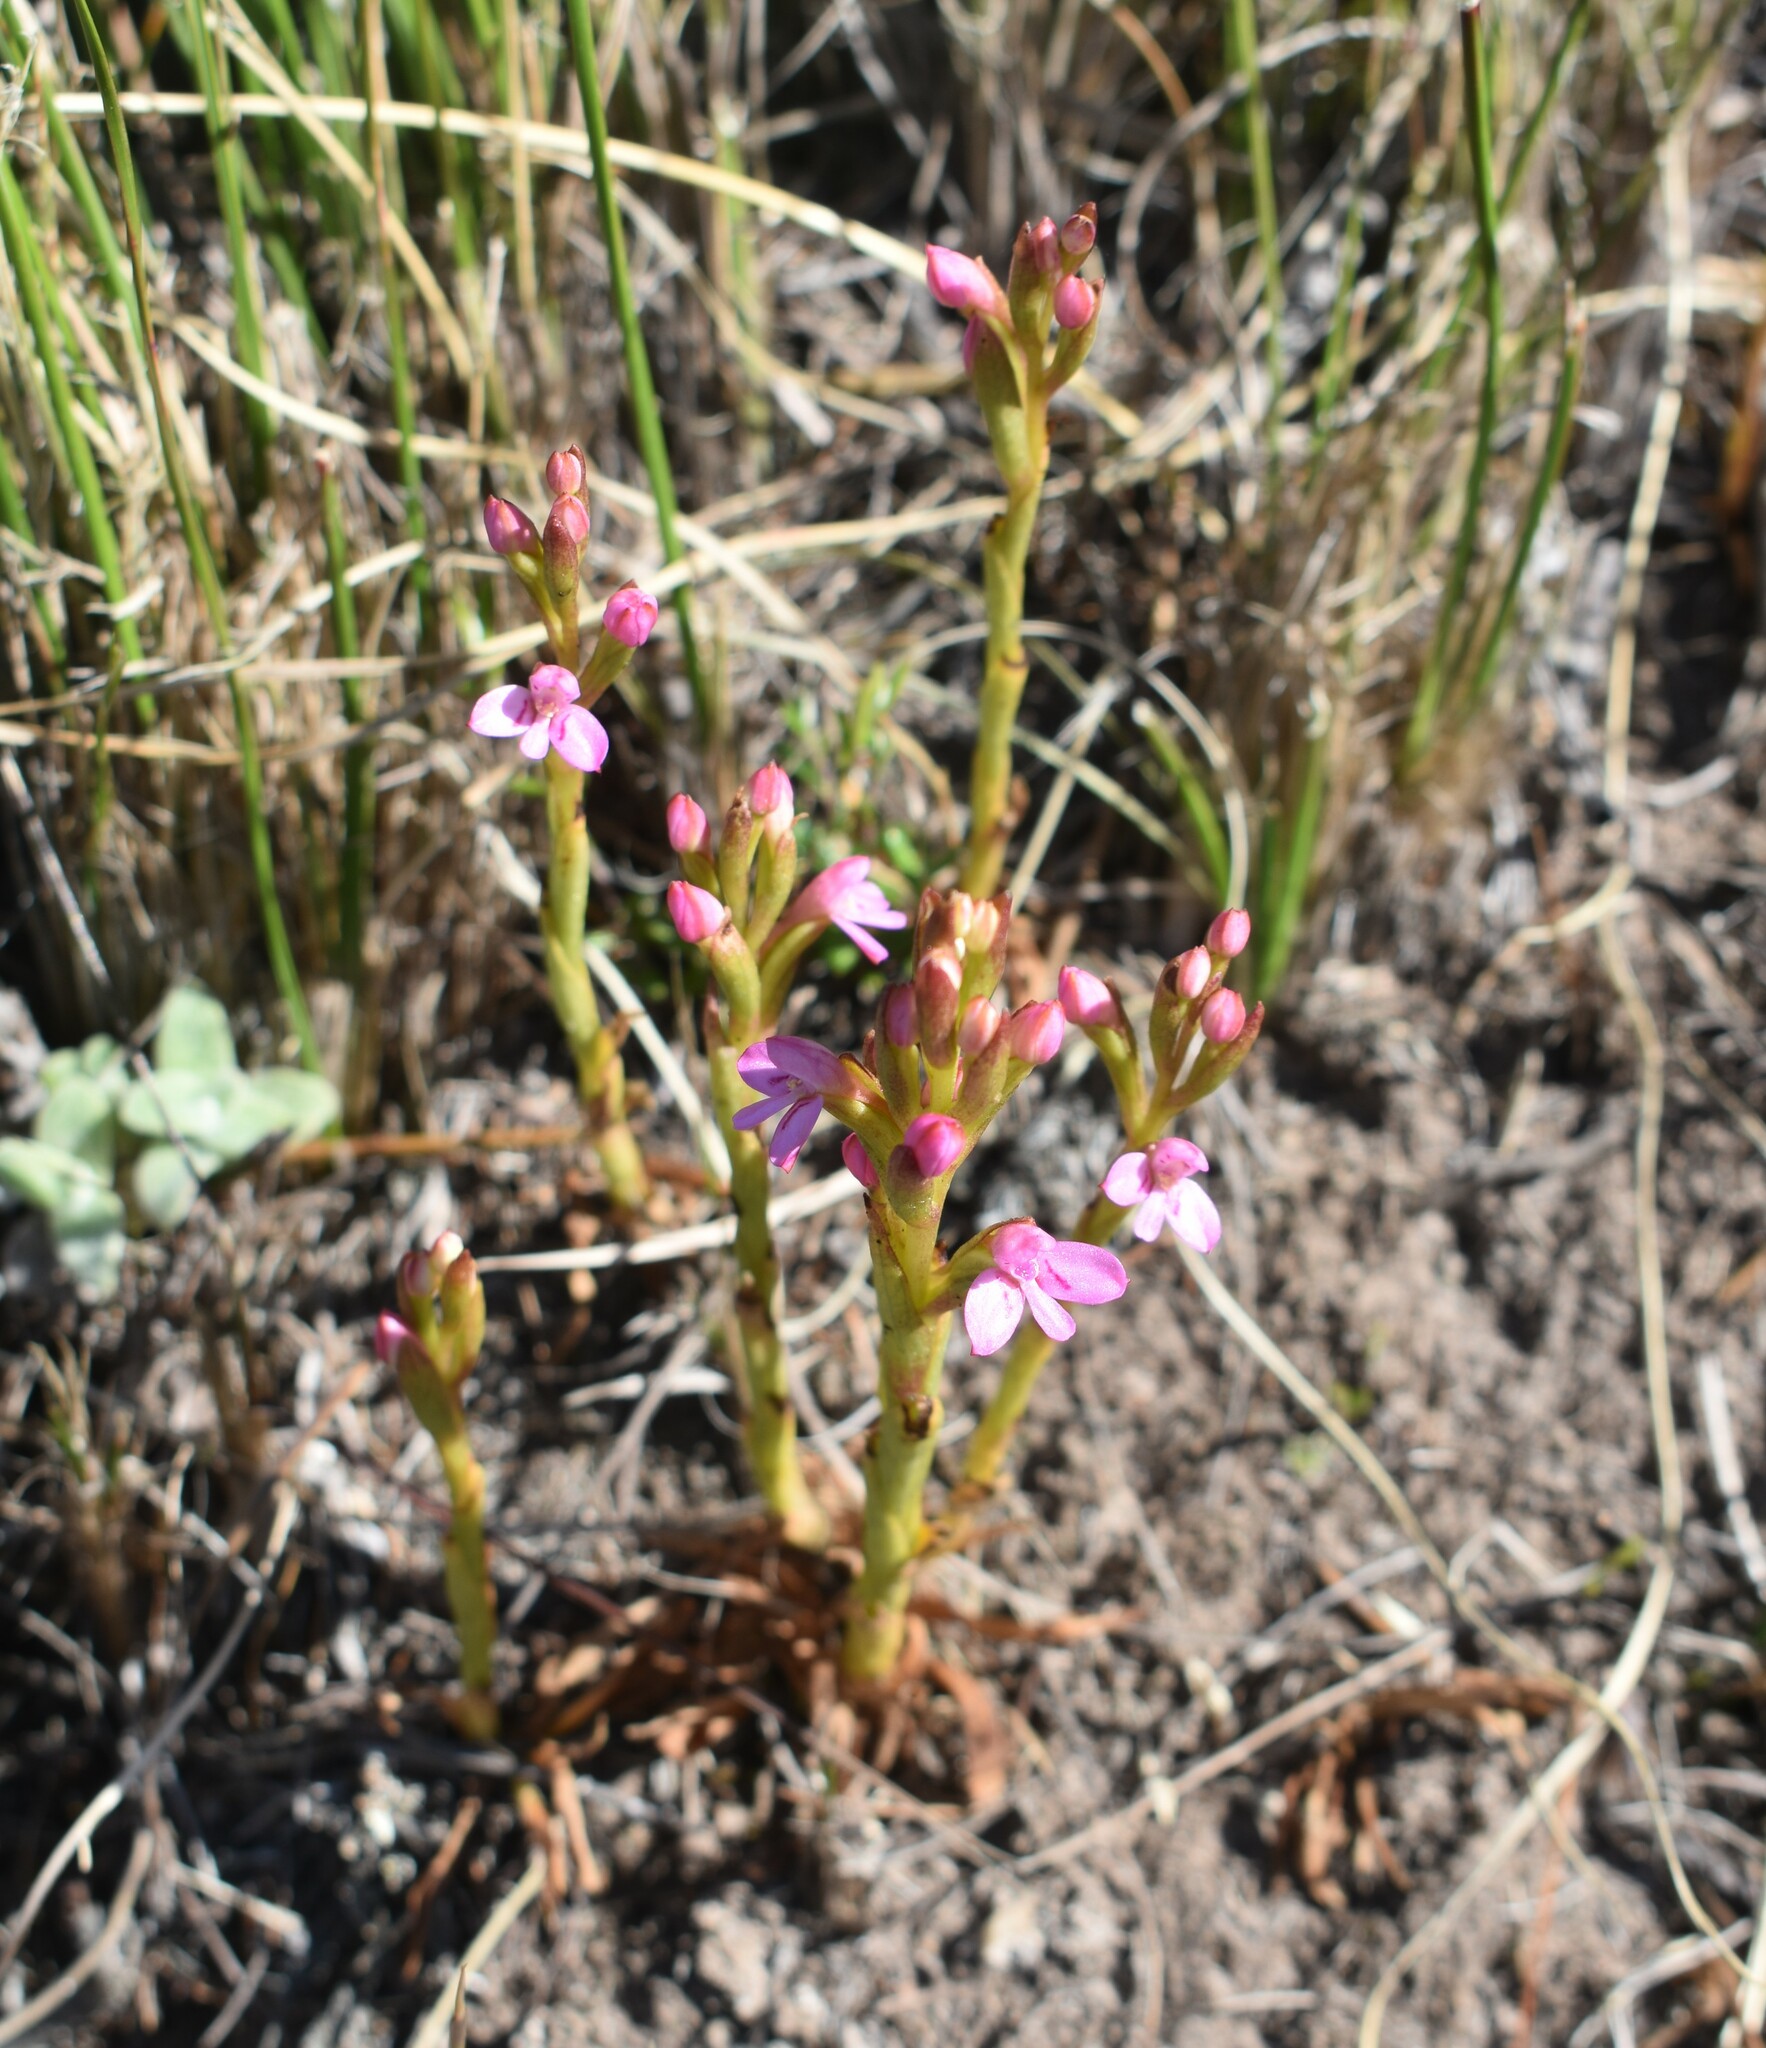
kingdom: Plantae
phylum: Tracheophyta
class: Liliopsida
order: Asparagales
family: Orchidaceae
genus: Disa
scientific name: Disa vaginata
